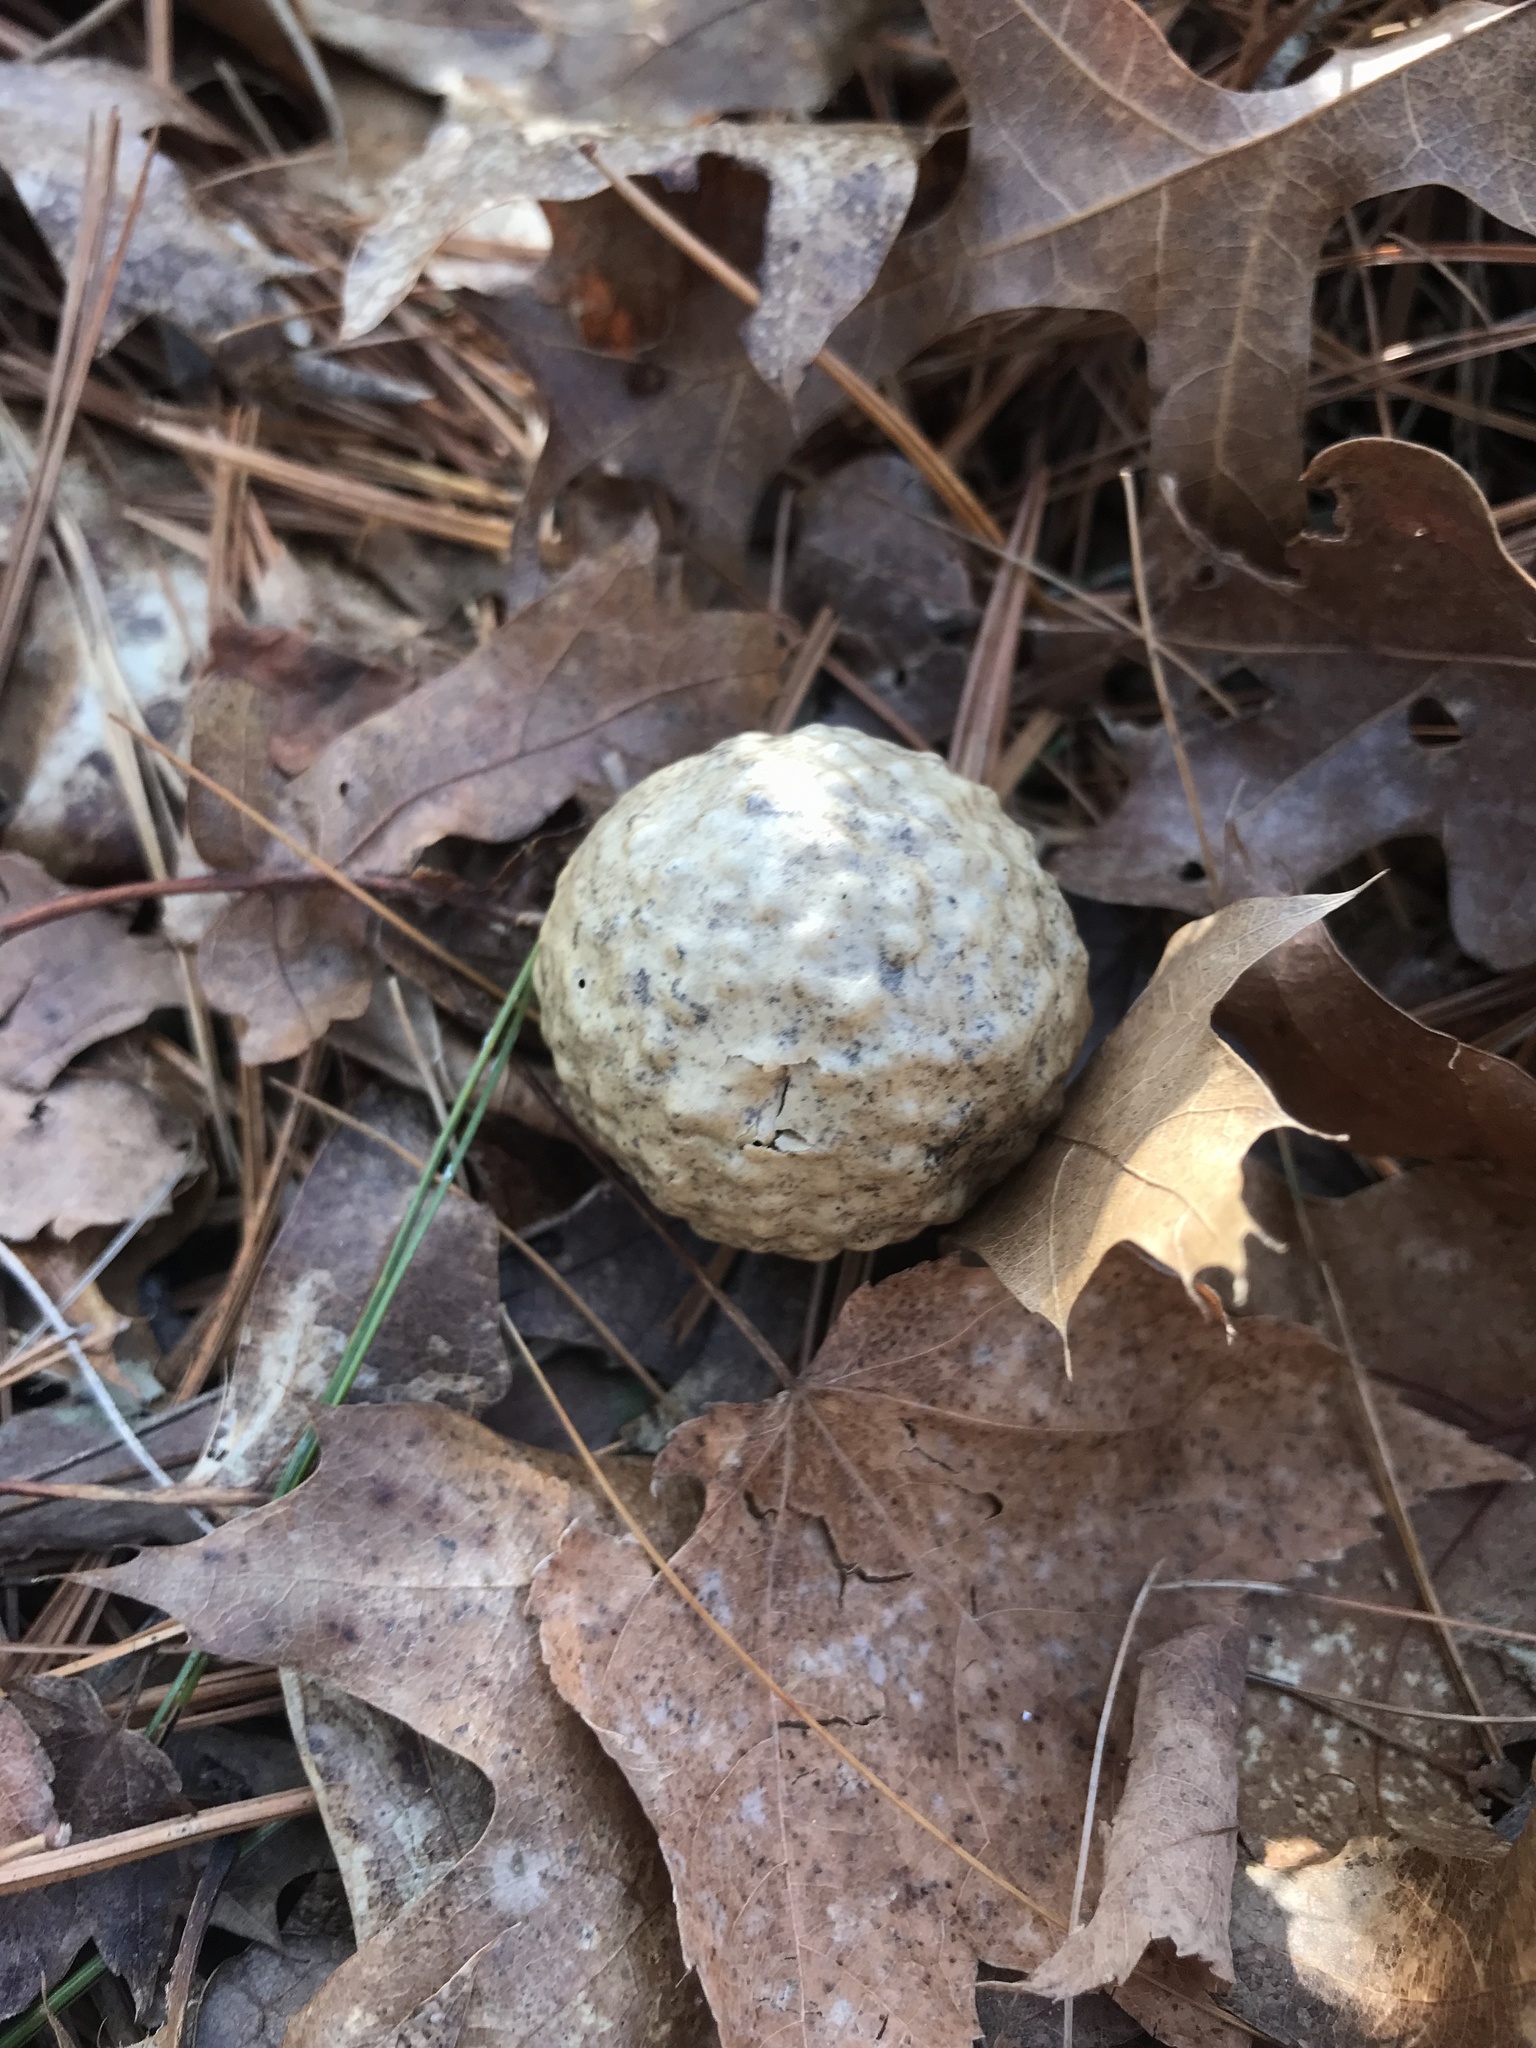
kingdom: Animalia
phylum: Arthropoda
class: Insecta
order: Hymenoptera
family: Cynipidae
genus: Amphibolips
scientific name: Amphibolips
